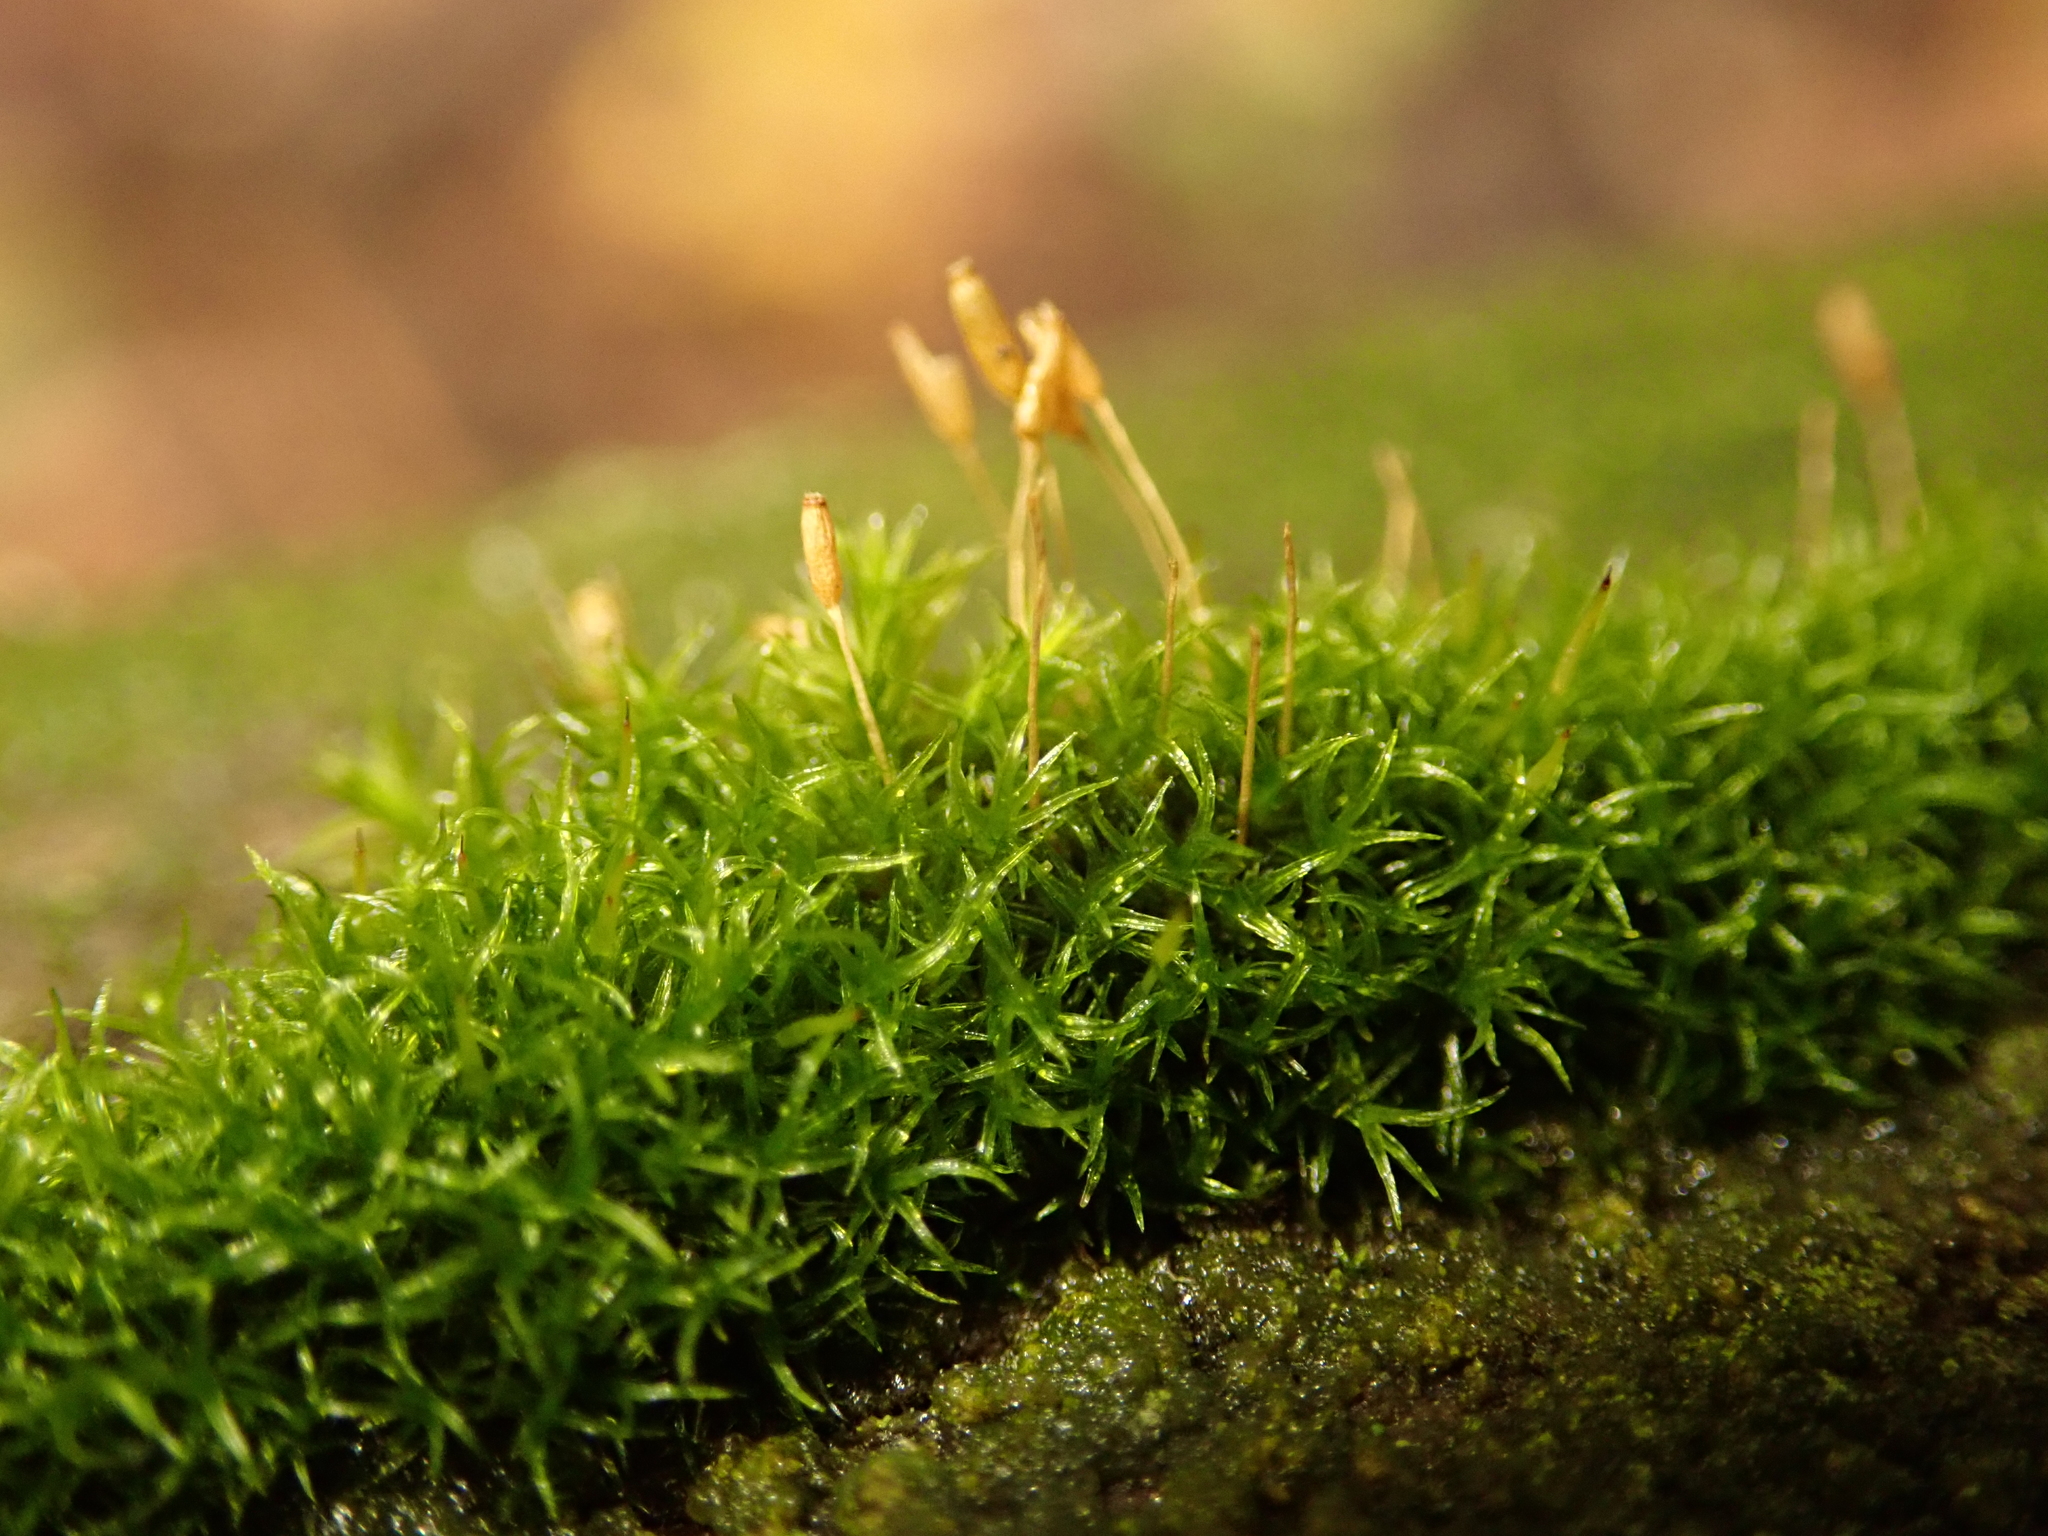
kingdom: Plantae
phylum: Bryophyta
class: Bryopsida
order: Dicranales
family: Rhabdoweisiaceae
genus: Dicranoweisia
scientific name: Dicranoweisia cirrata
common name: Common pincushion
